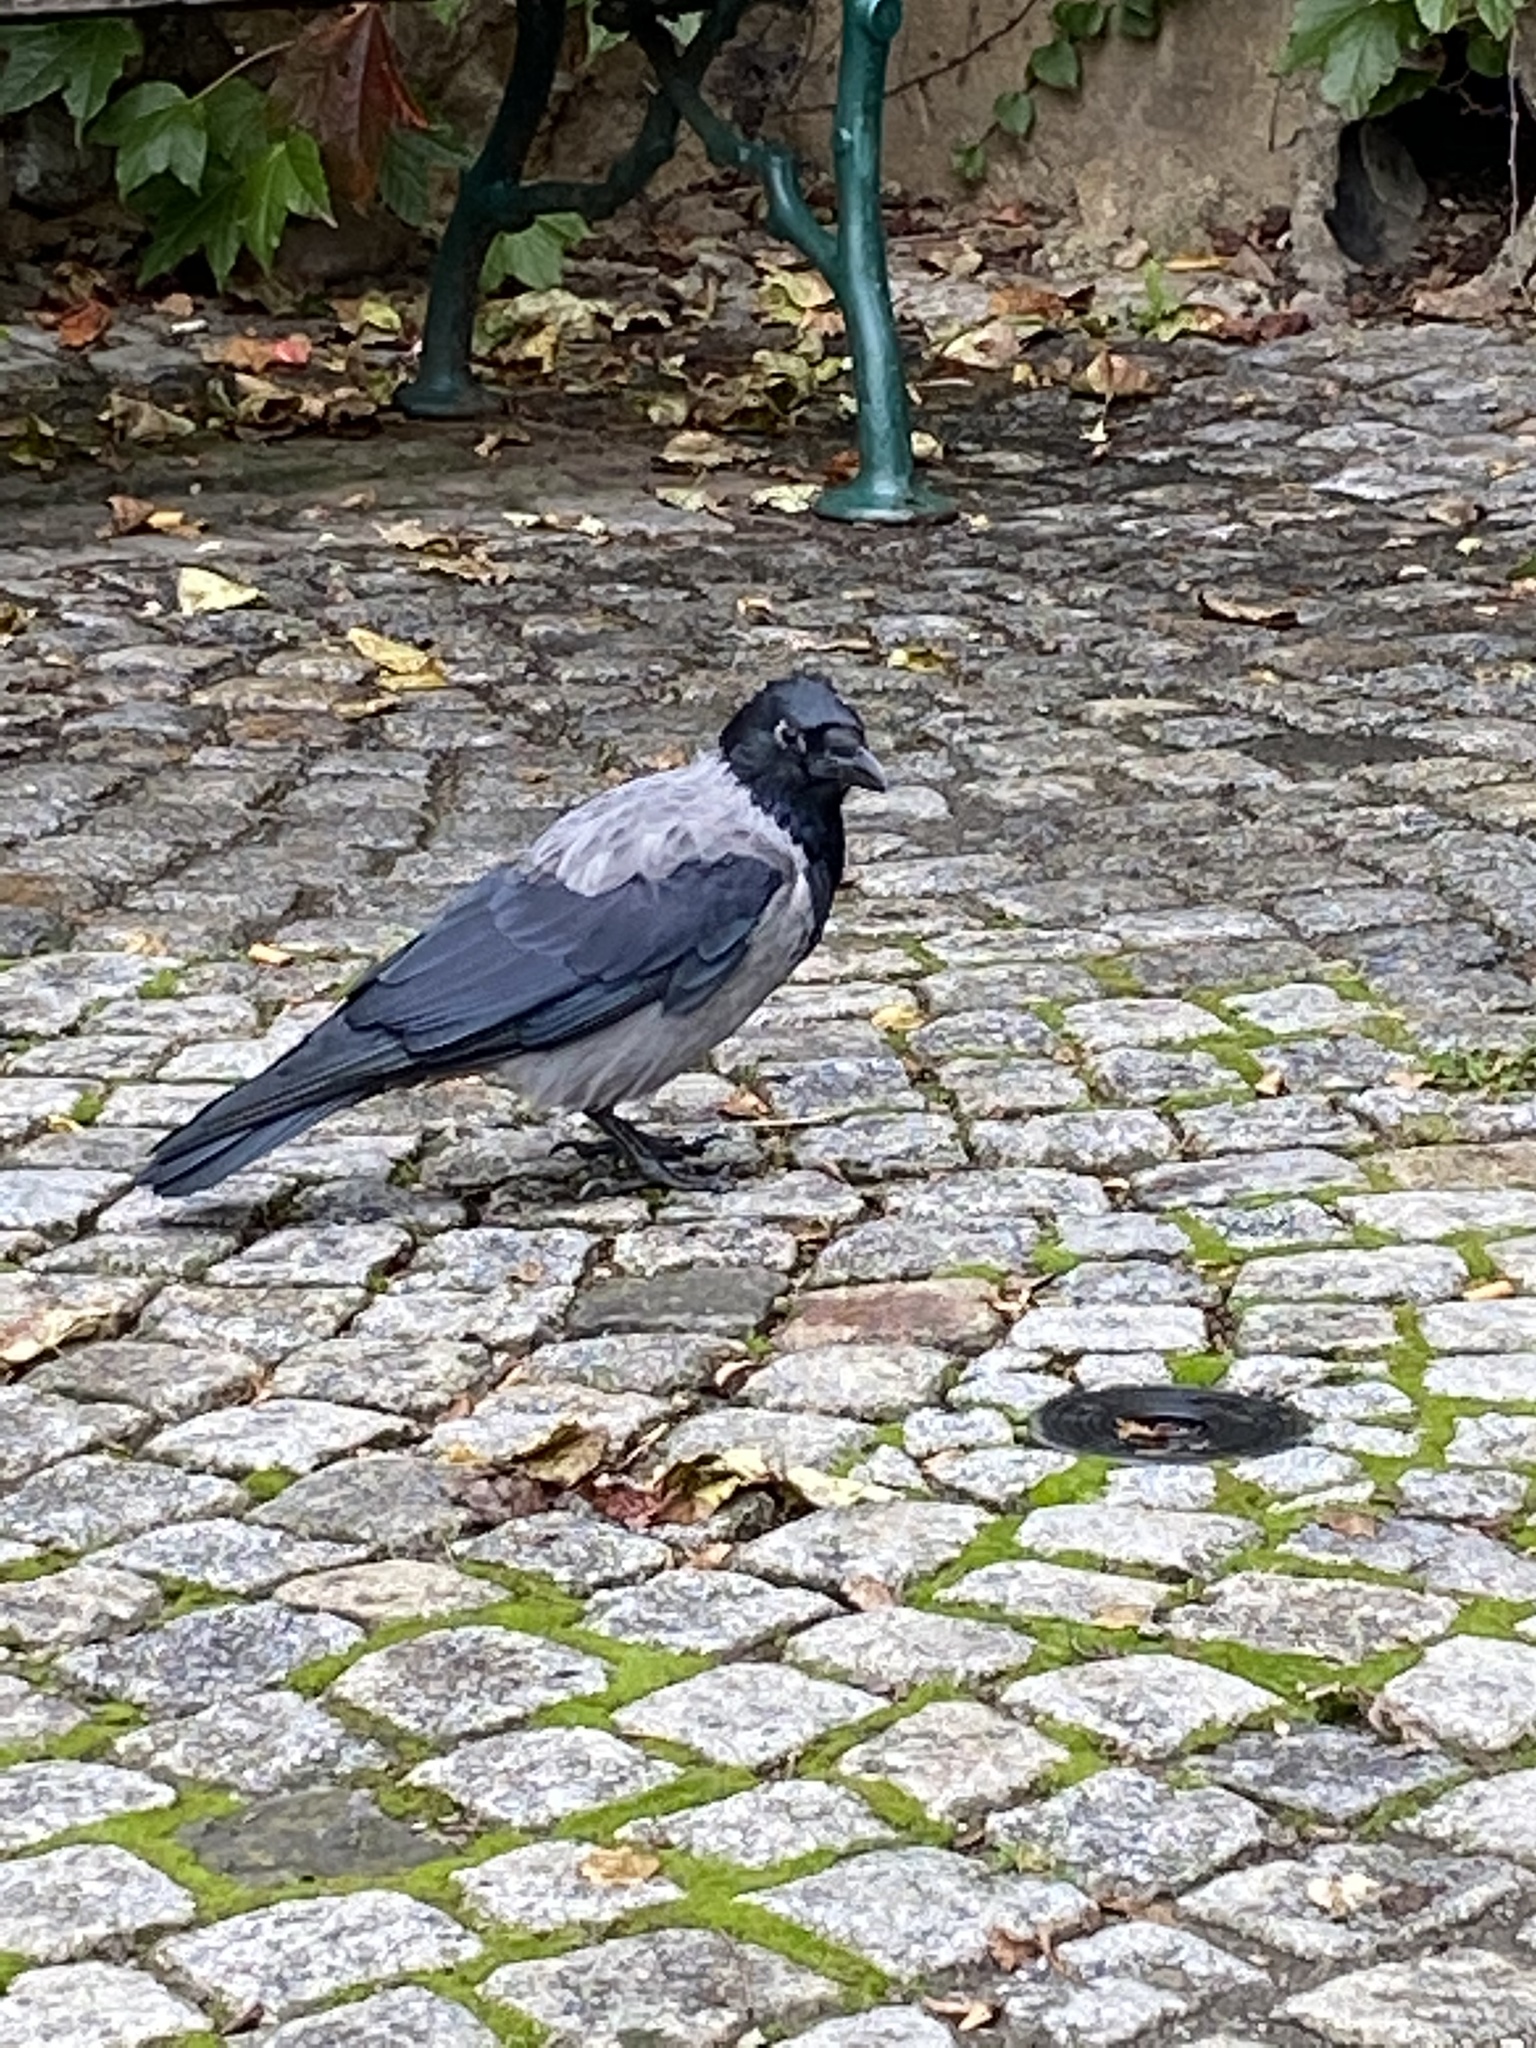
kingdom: Animalia
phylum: Chordata
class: Aves
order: Passeriformes
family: Corvidae
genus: Corvus
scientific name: Corvus cornix
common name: Hooded crow
